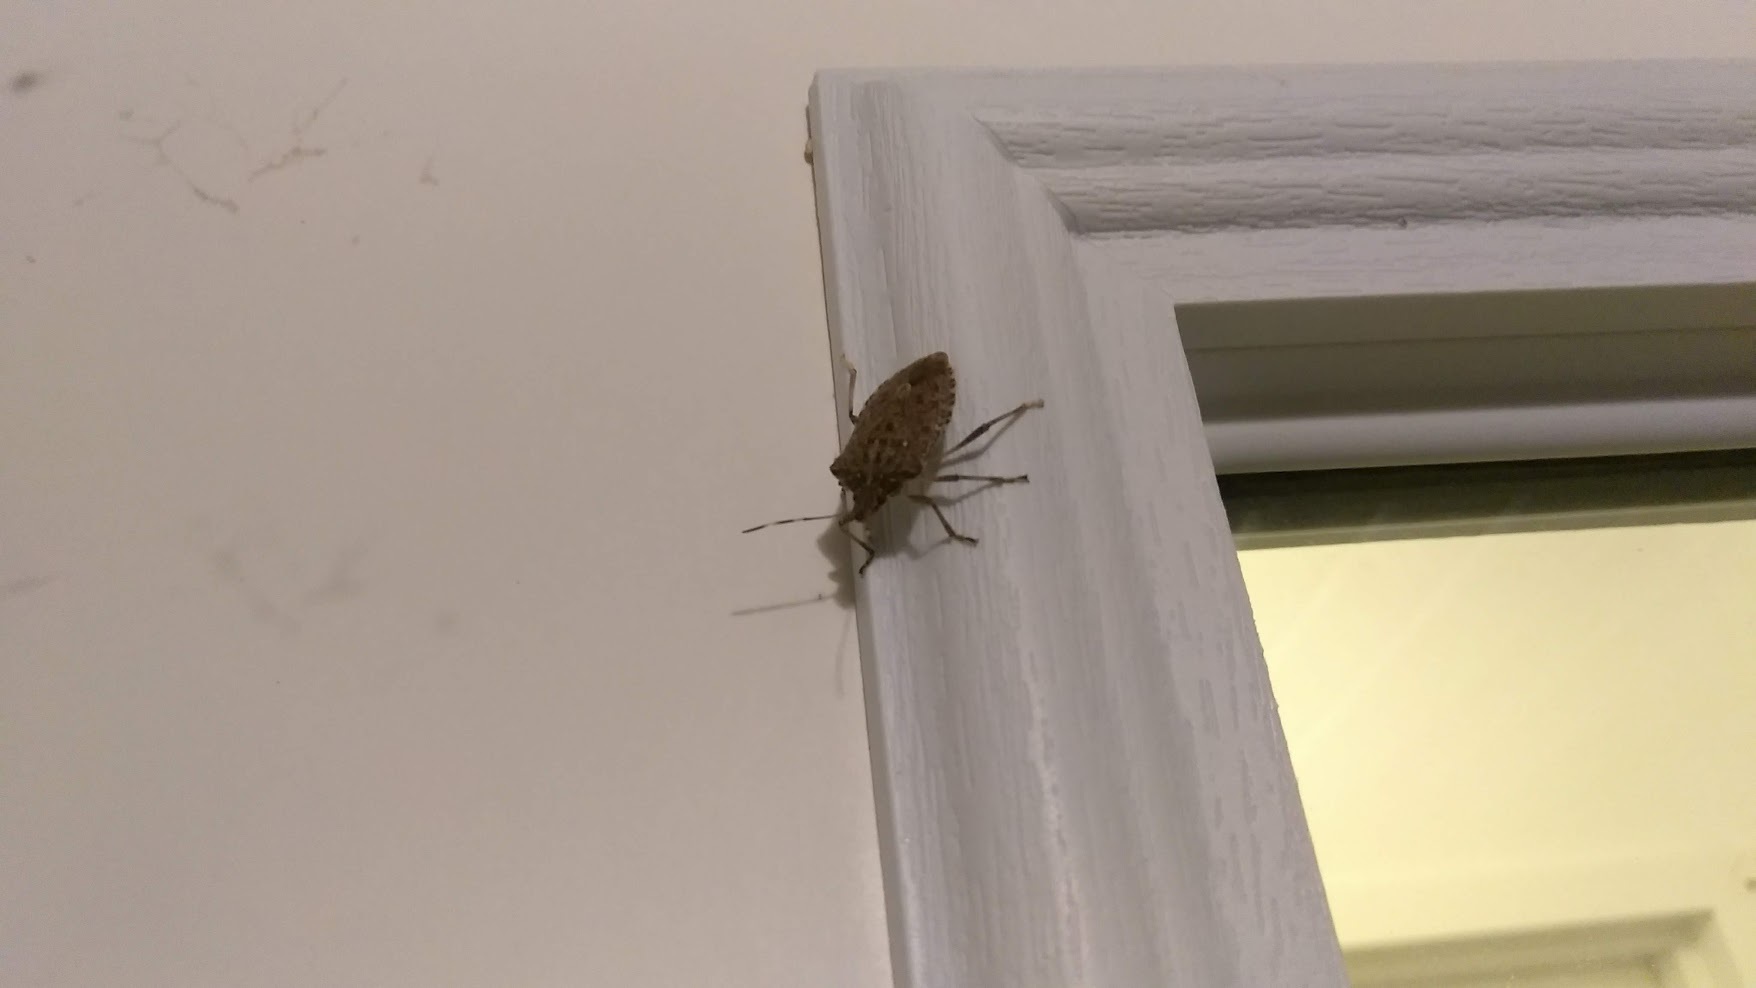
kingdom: Animalia
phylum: Arthropoda
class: Insecta
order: Hemiptera
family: Pentatomidae
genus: Halyomorpha
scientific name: Halyomorpha halys
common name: Brown marmorated stink bug
